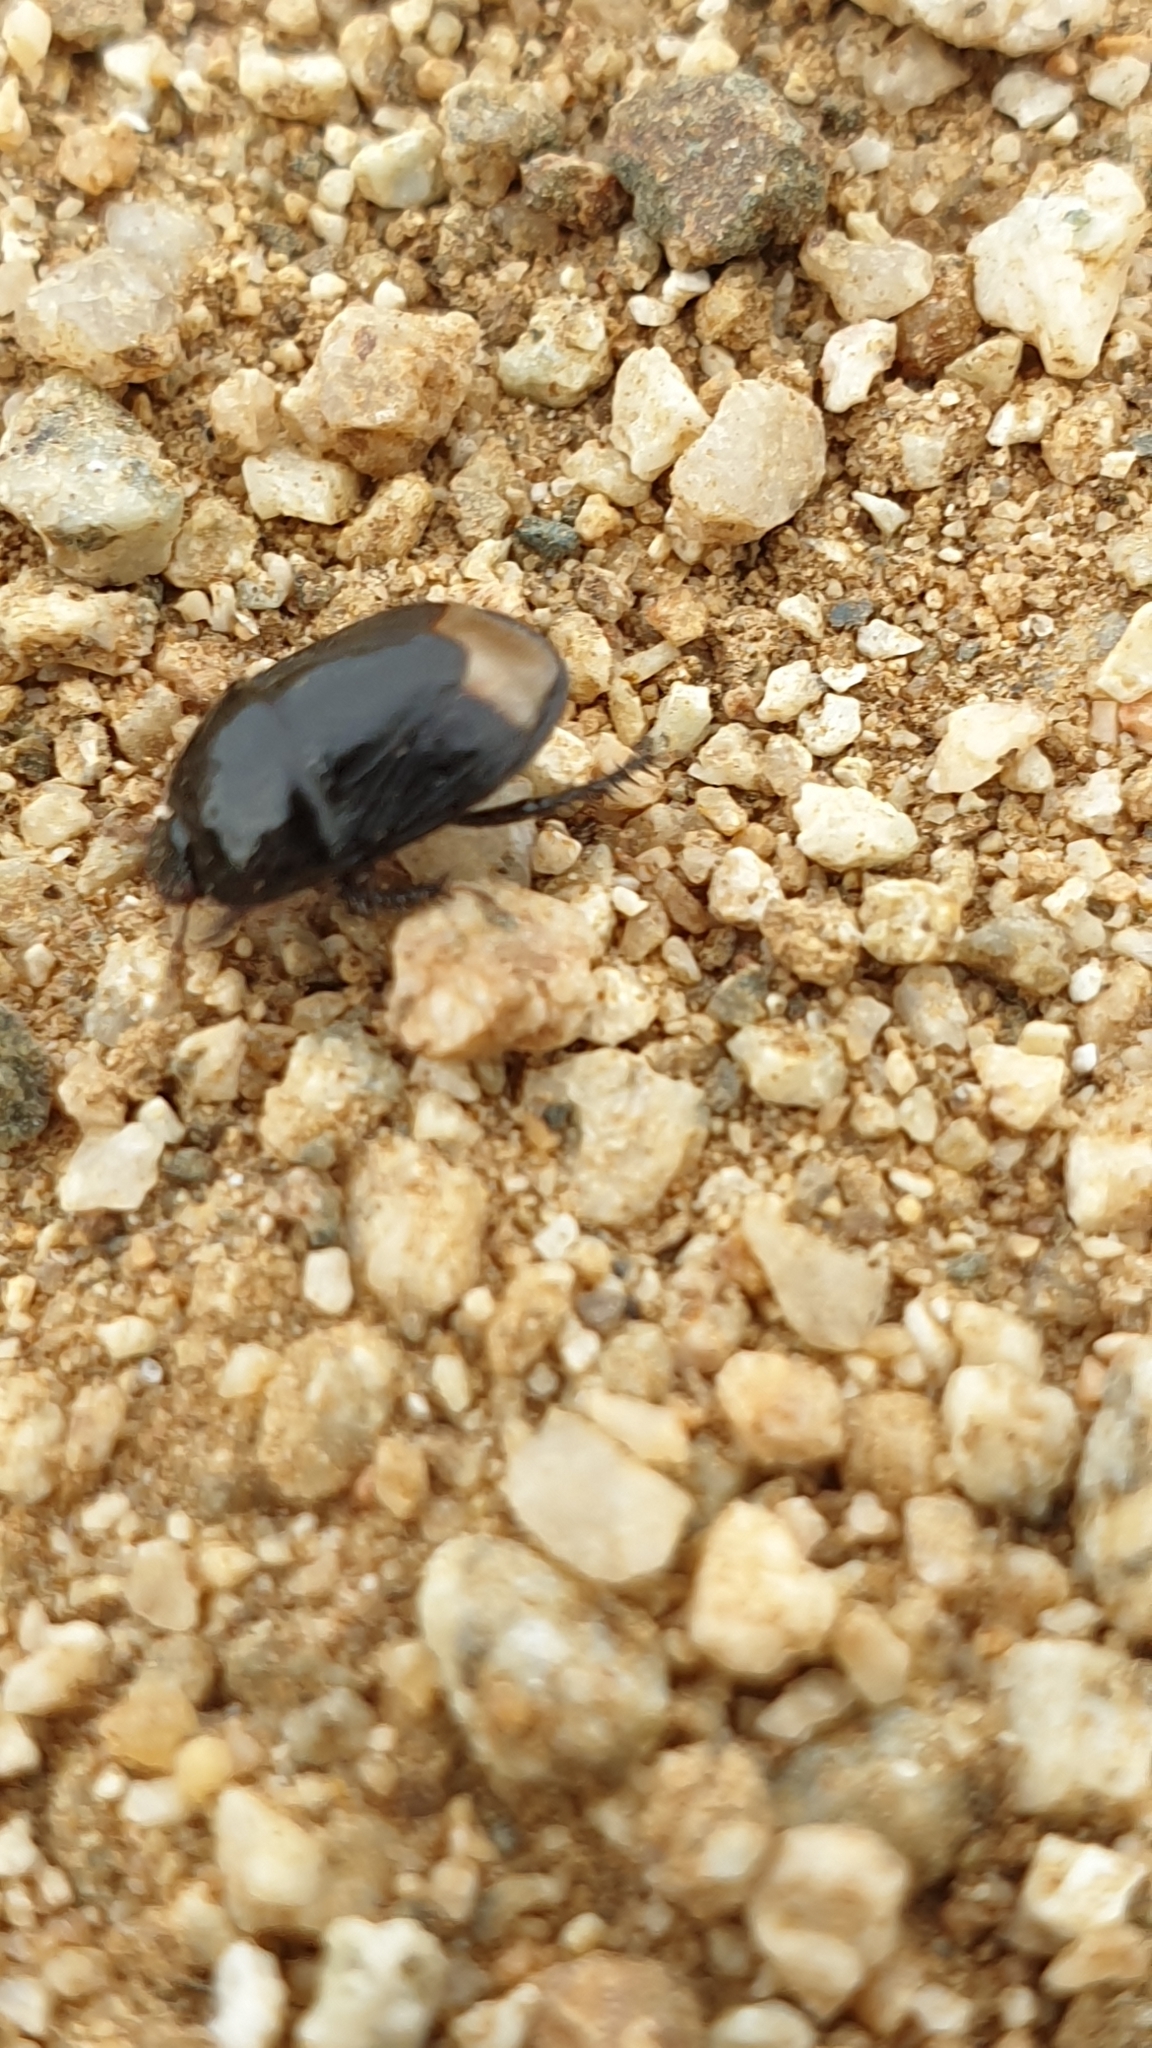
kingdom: Animalia
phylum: Arthropoda
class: Insecta
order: Hemiptera
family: Cydnidae
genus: Aethus
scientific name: Aethus pilosus
